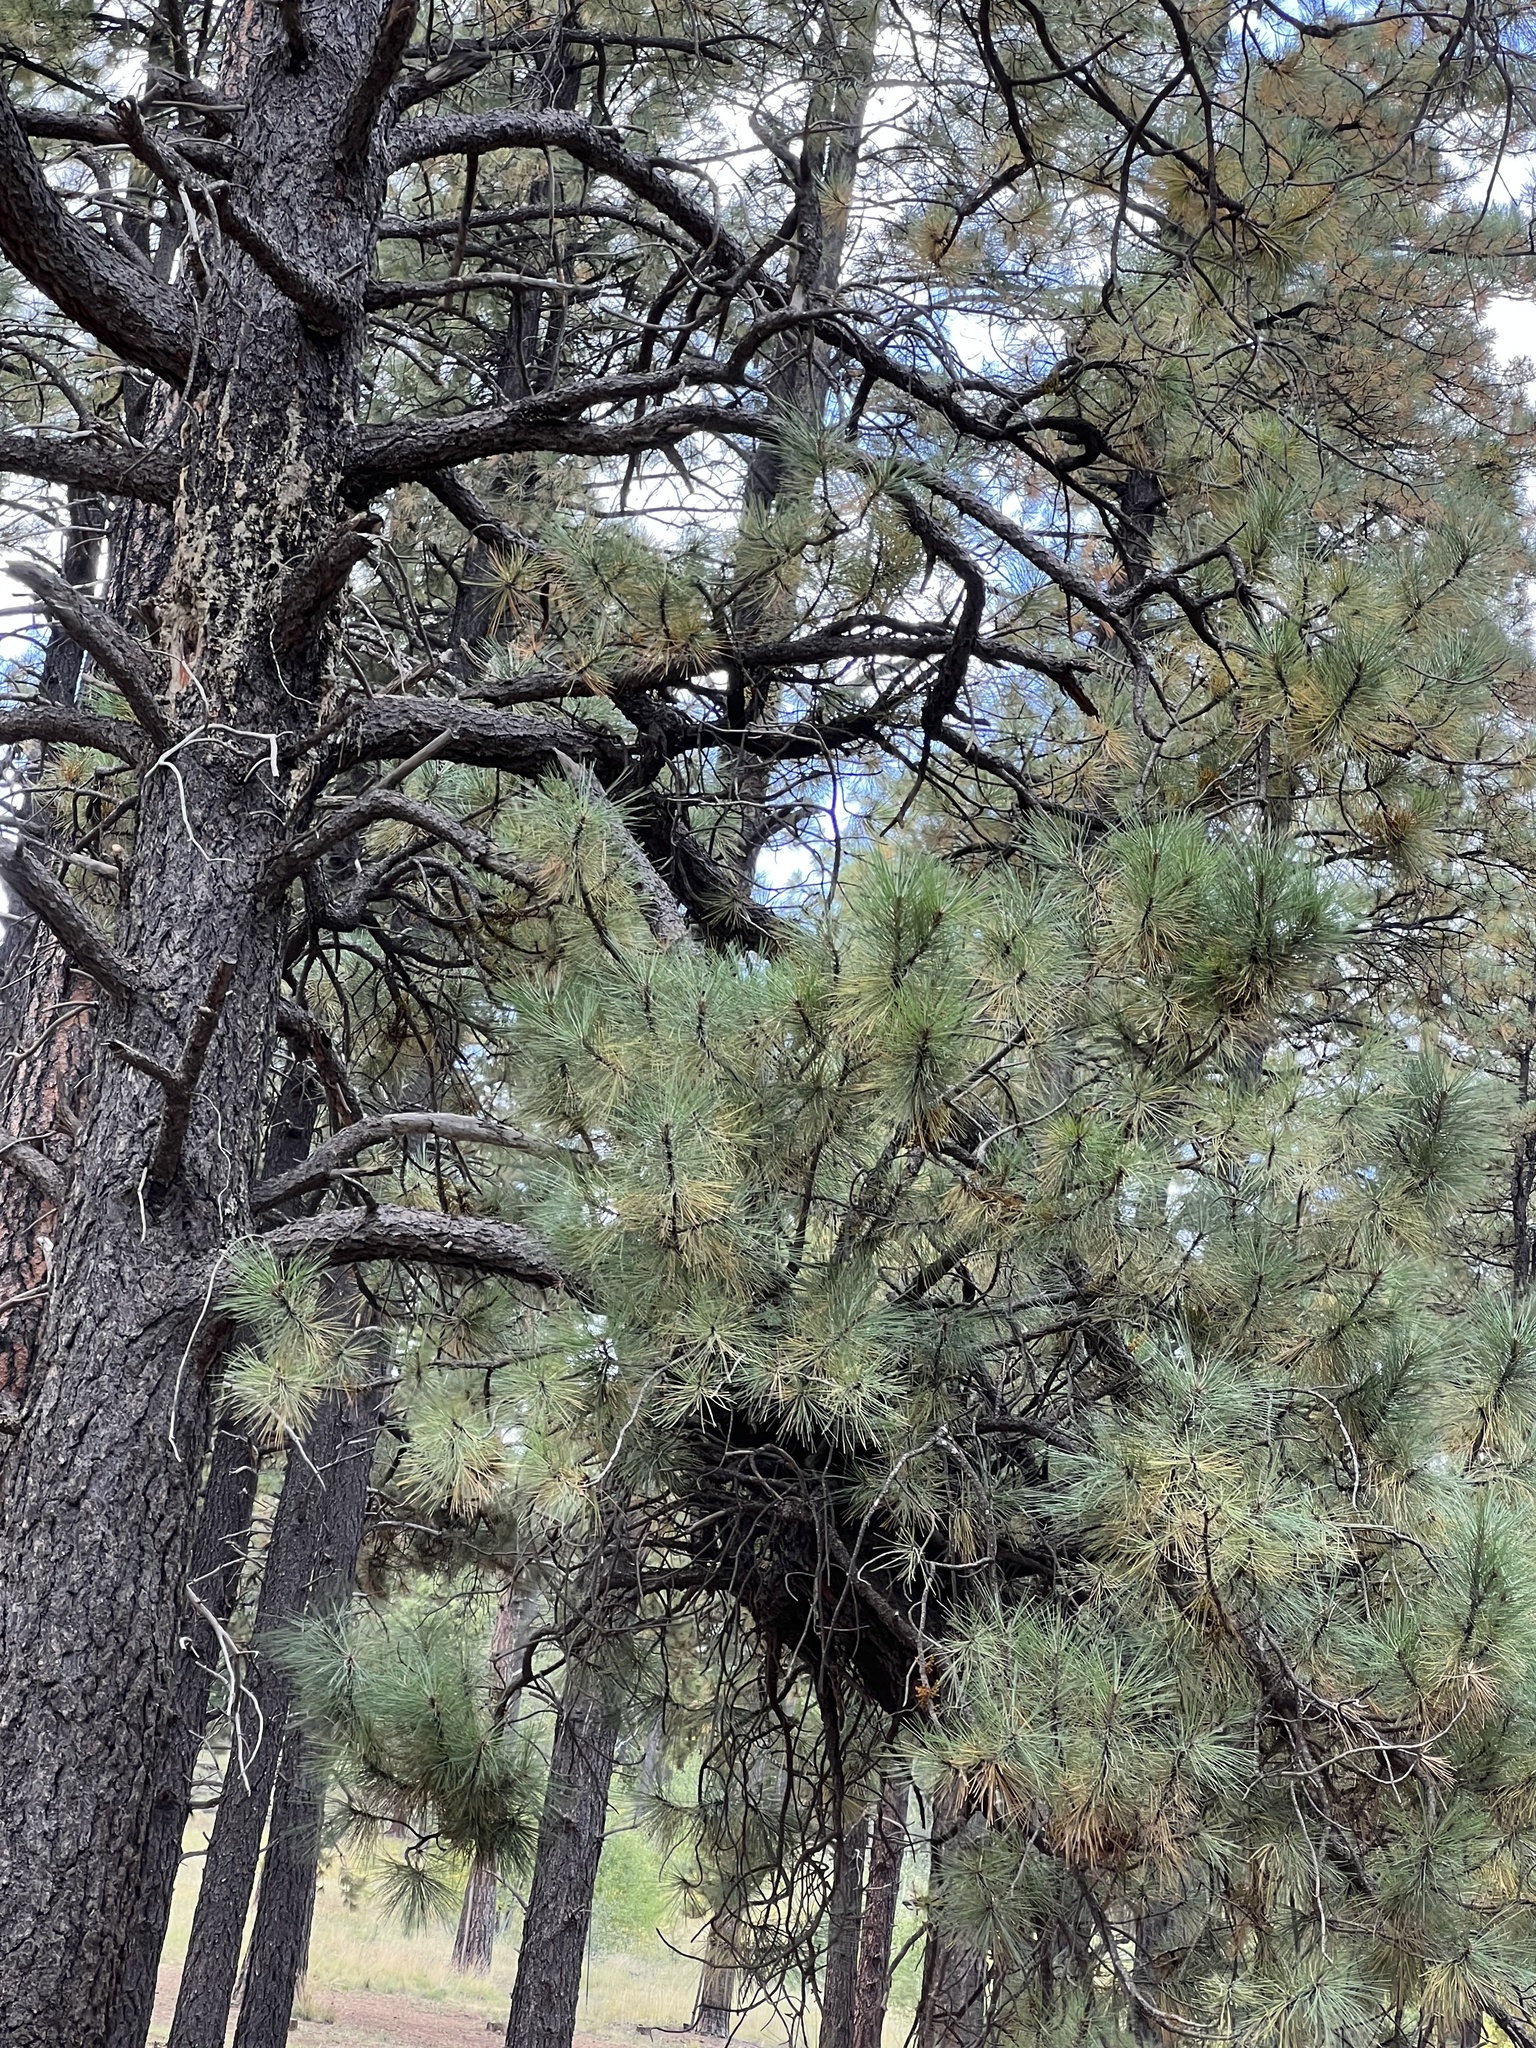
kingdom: Plantae
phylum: Tracheophyta
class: Pinopsida
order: Pinales
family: Pinaceae
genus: Pinus
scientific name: Pinus ponderosa
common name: Western yellow-pine
